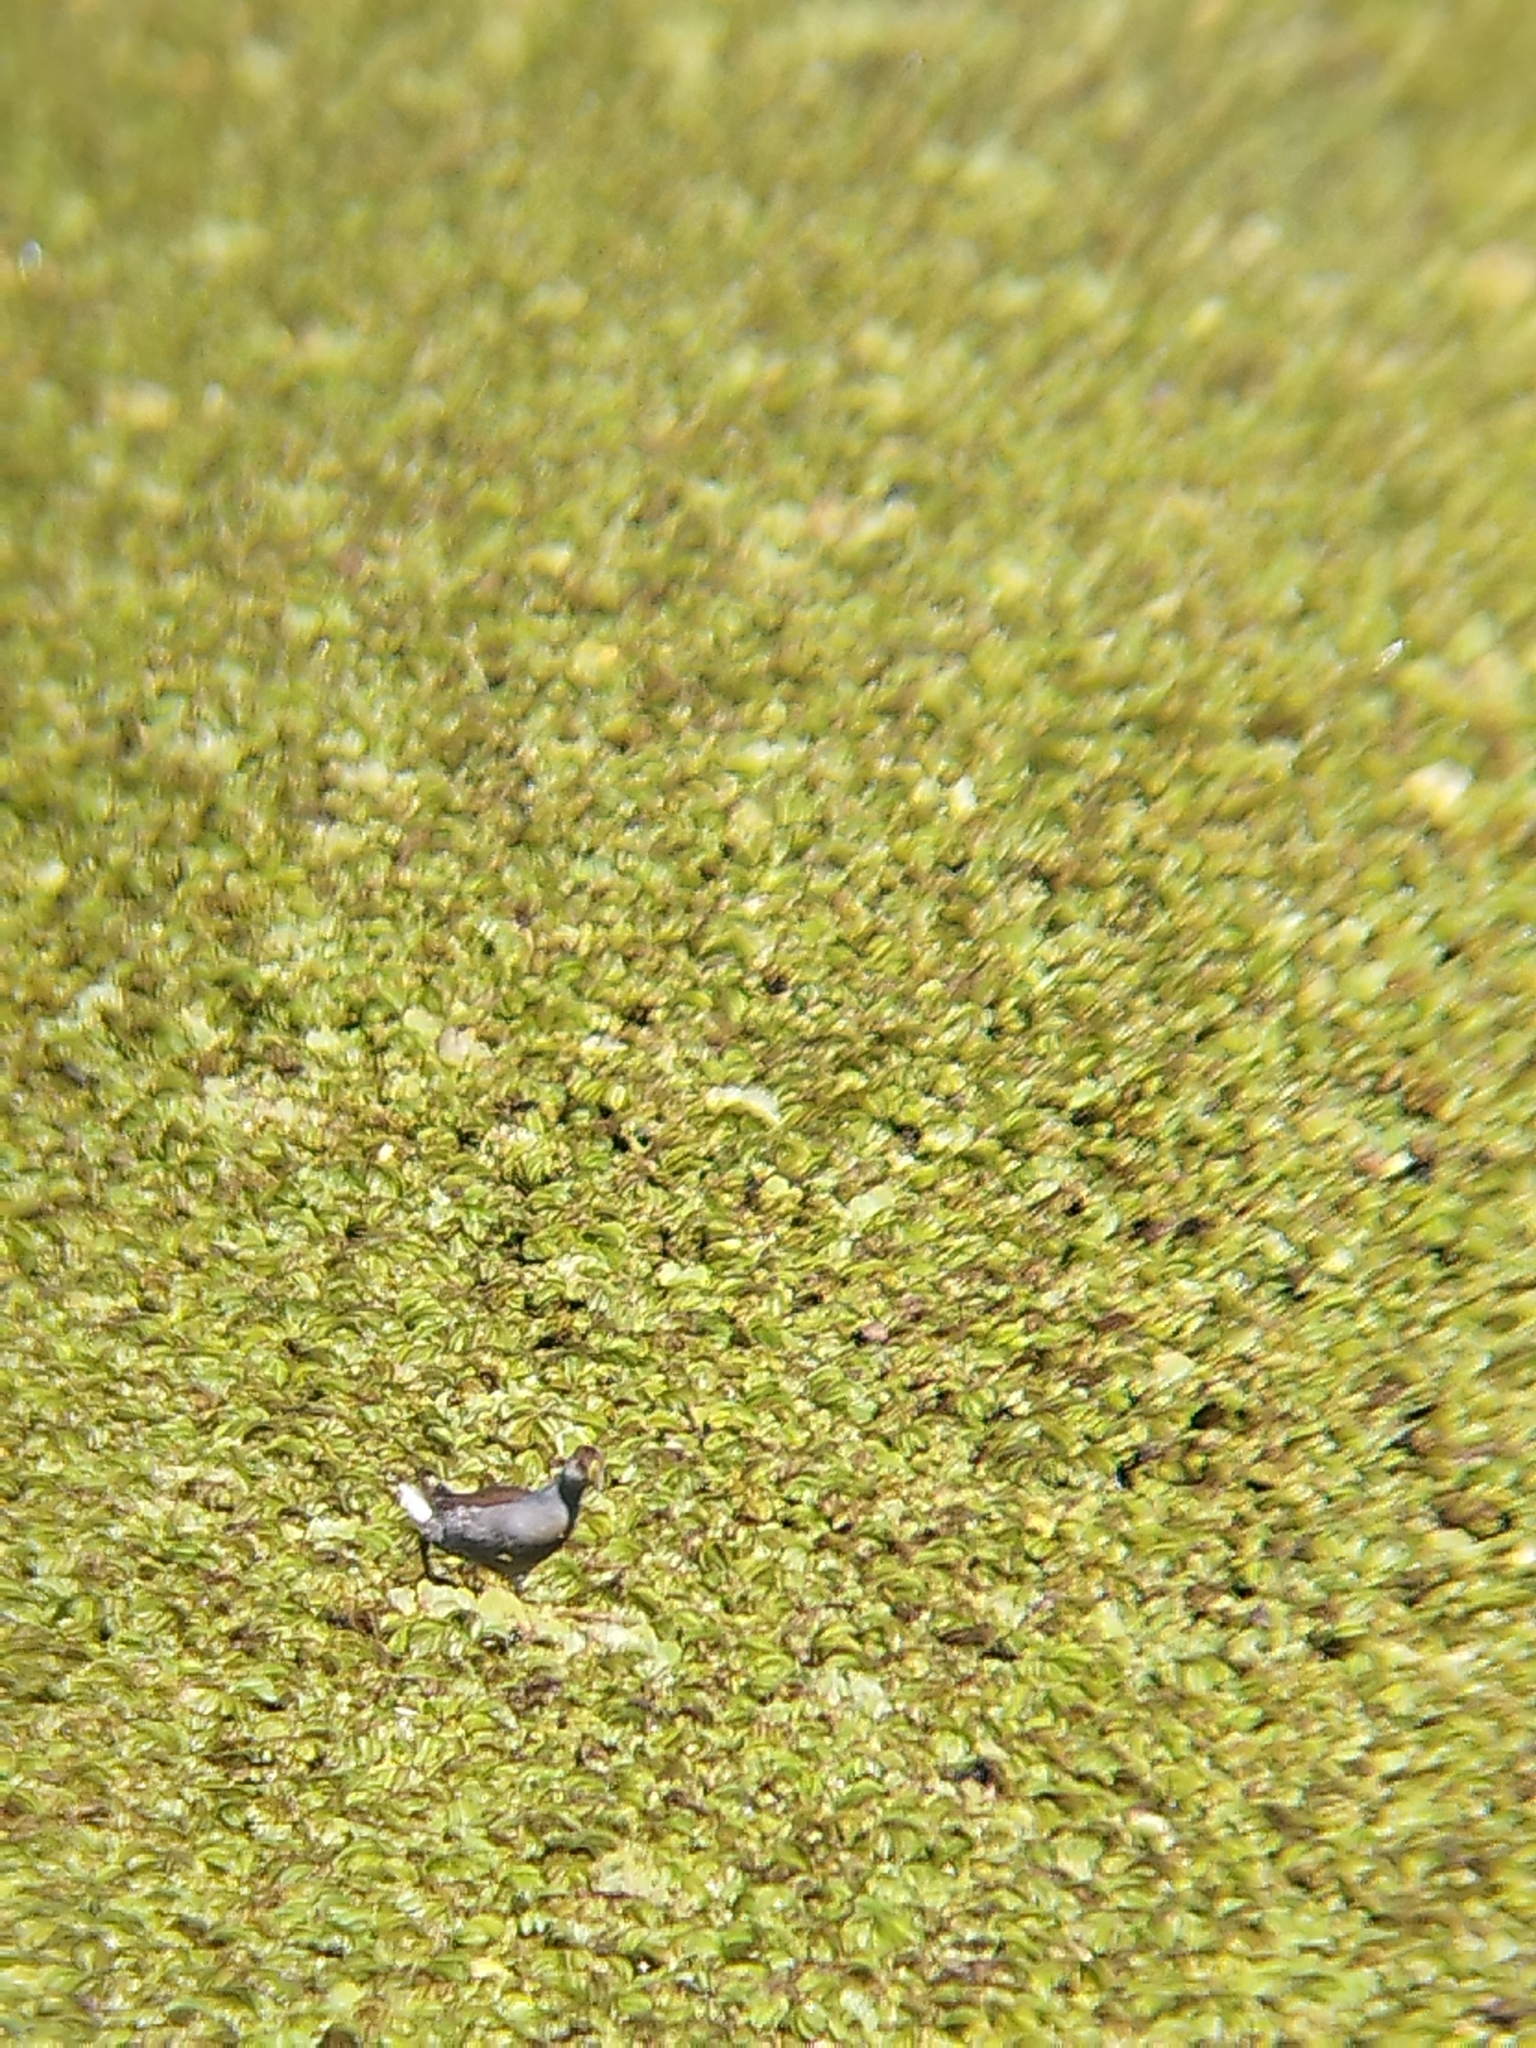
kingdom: Animalia
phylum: Chordata
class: Aves
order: Gruiformes
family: Rallidae
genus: Gallinula
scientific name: Gallinula melanops
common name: Spot-flanked gallinule
